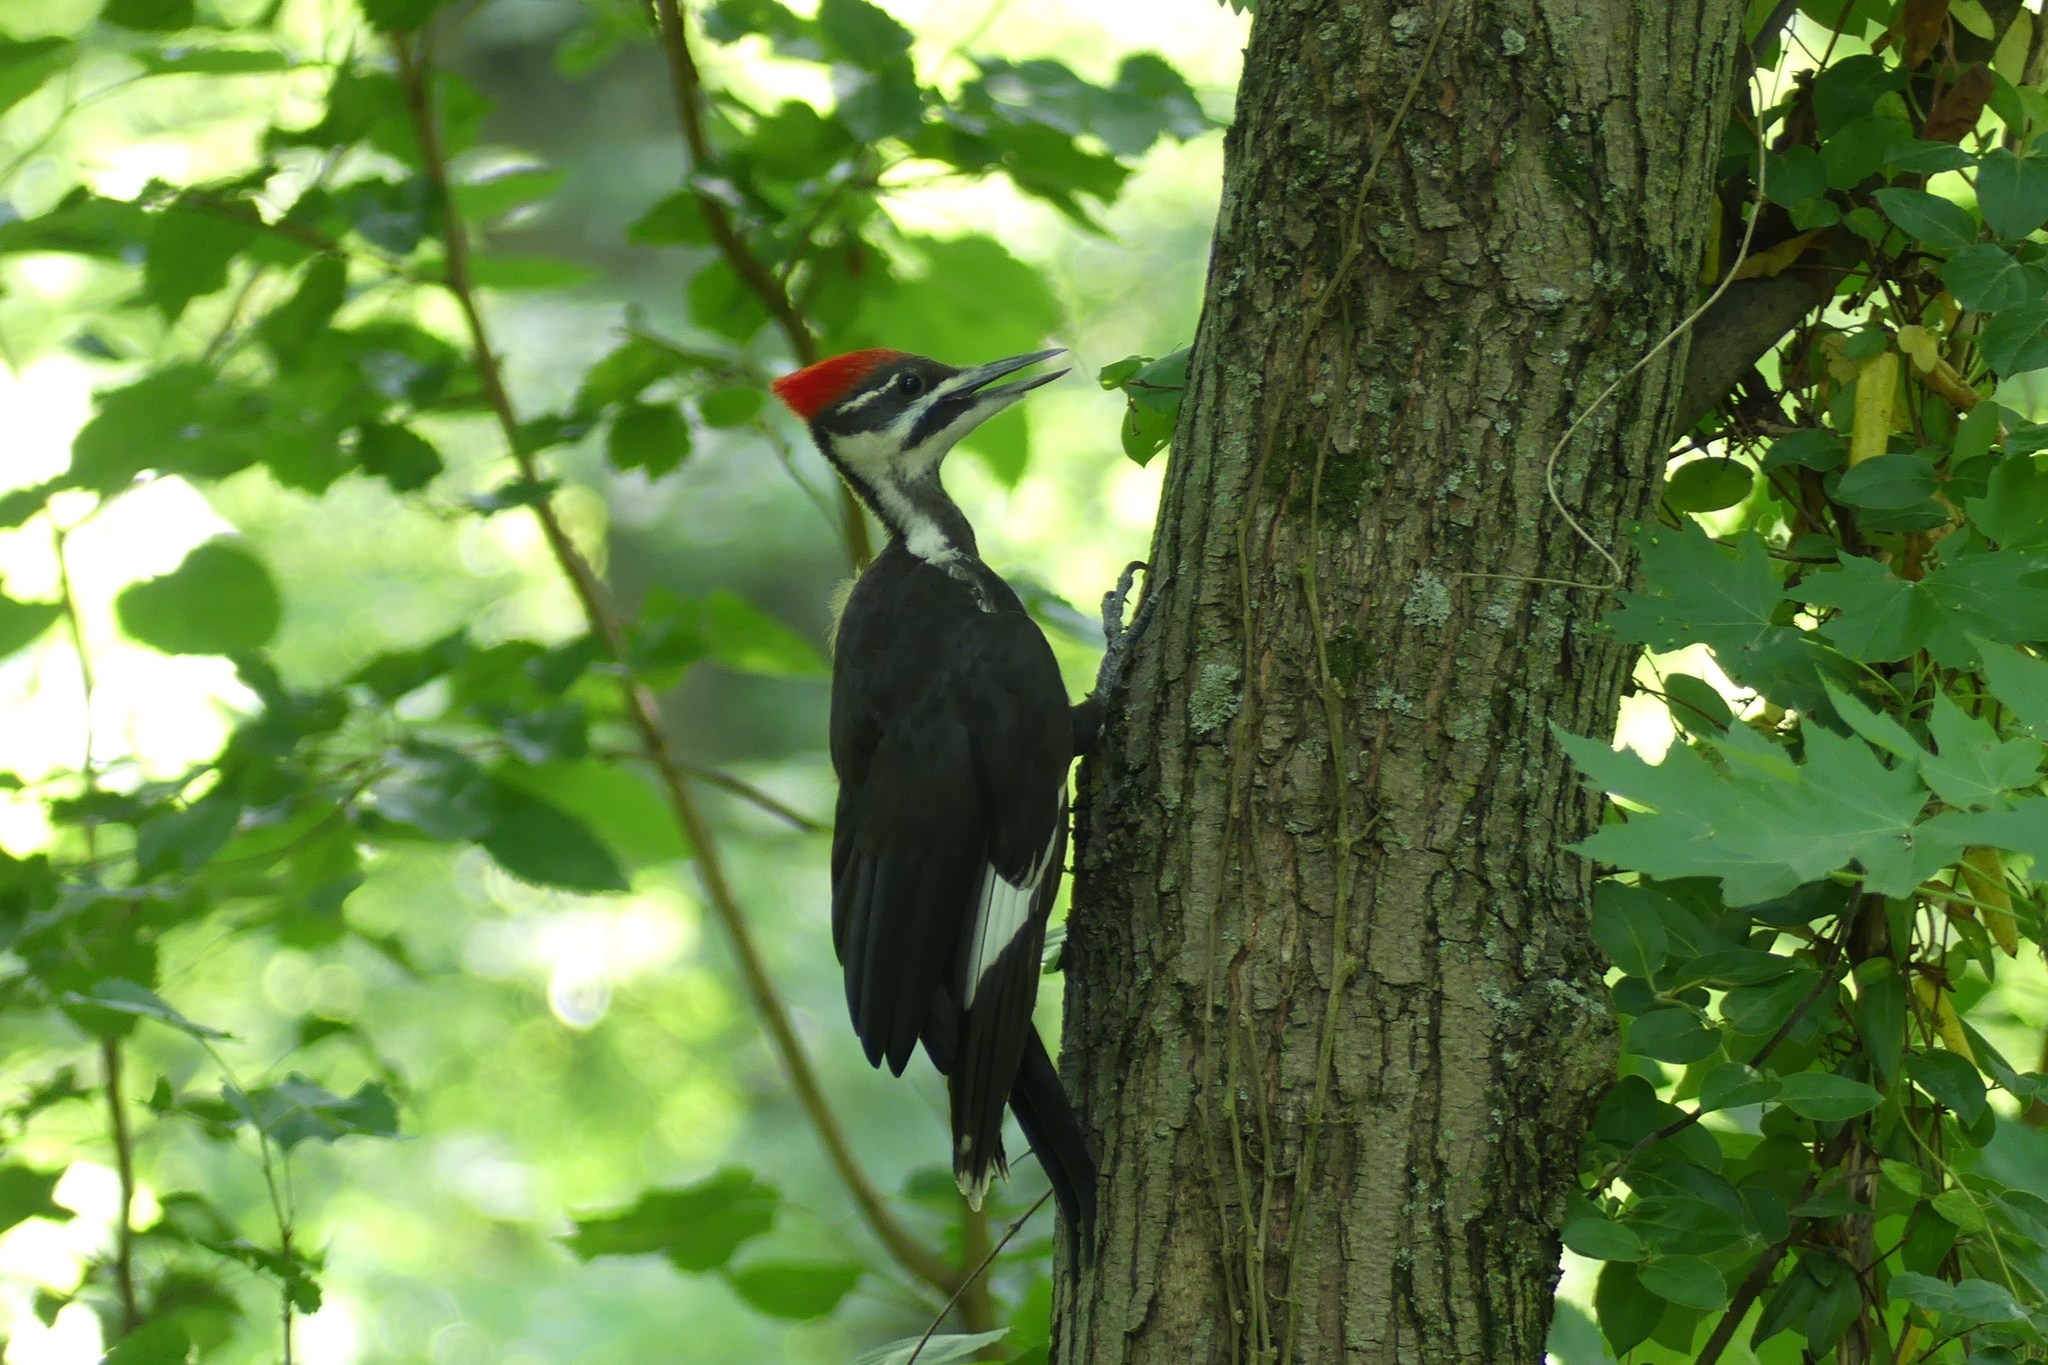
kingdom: Animalia
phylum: Chordata
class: Aves
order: Piciformes
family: Picidae
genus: Dryocopus
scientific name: Dryocopus pileatus
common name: Pileated woodpecker
